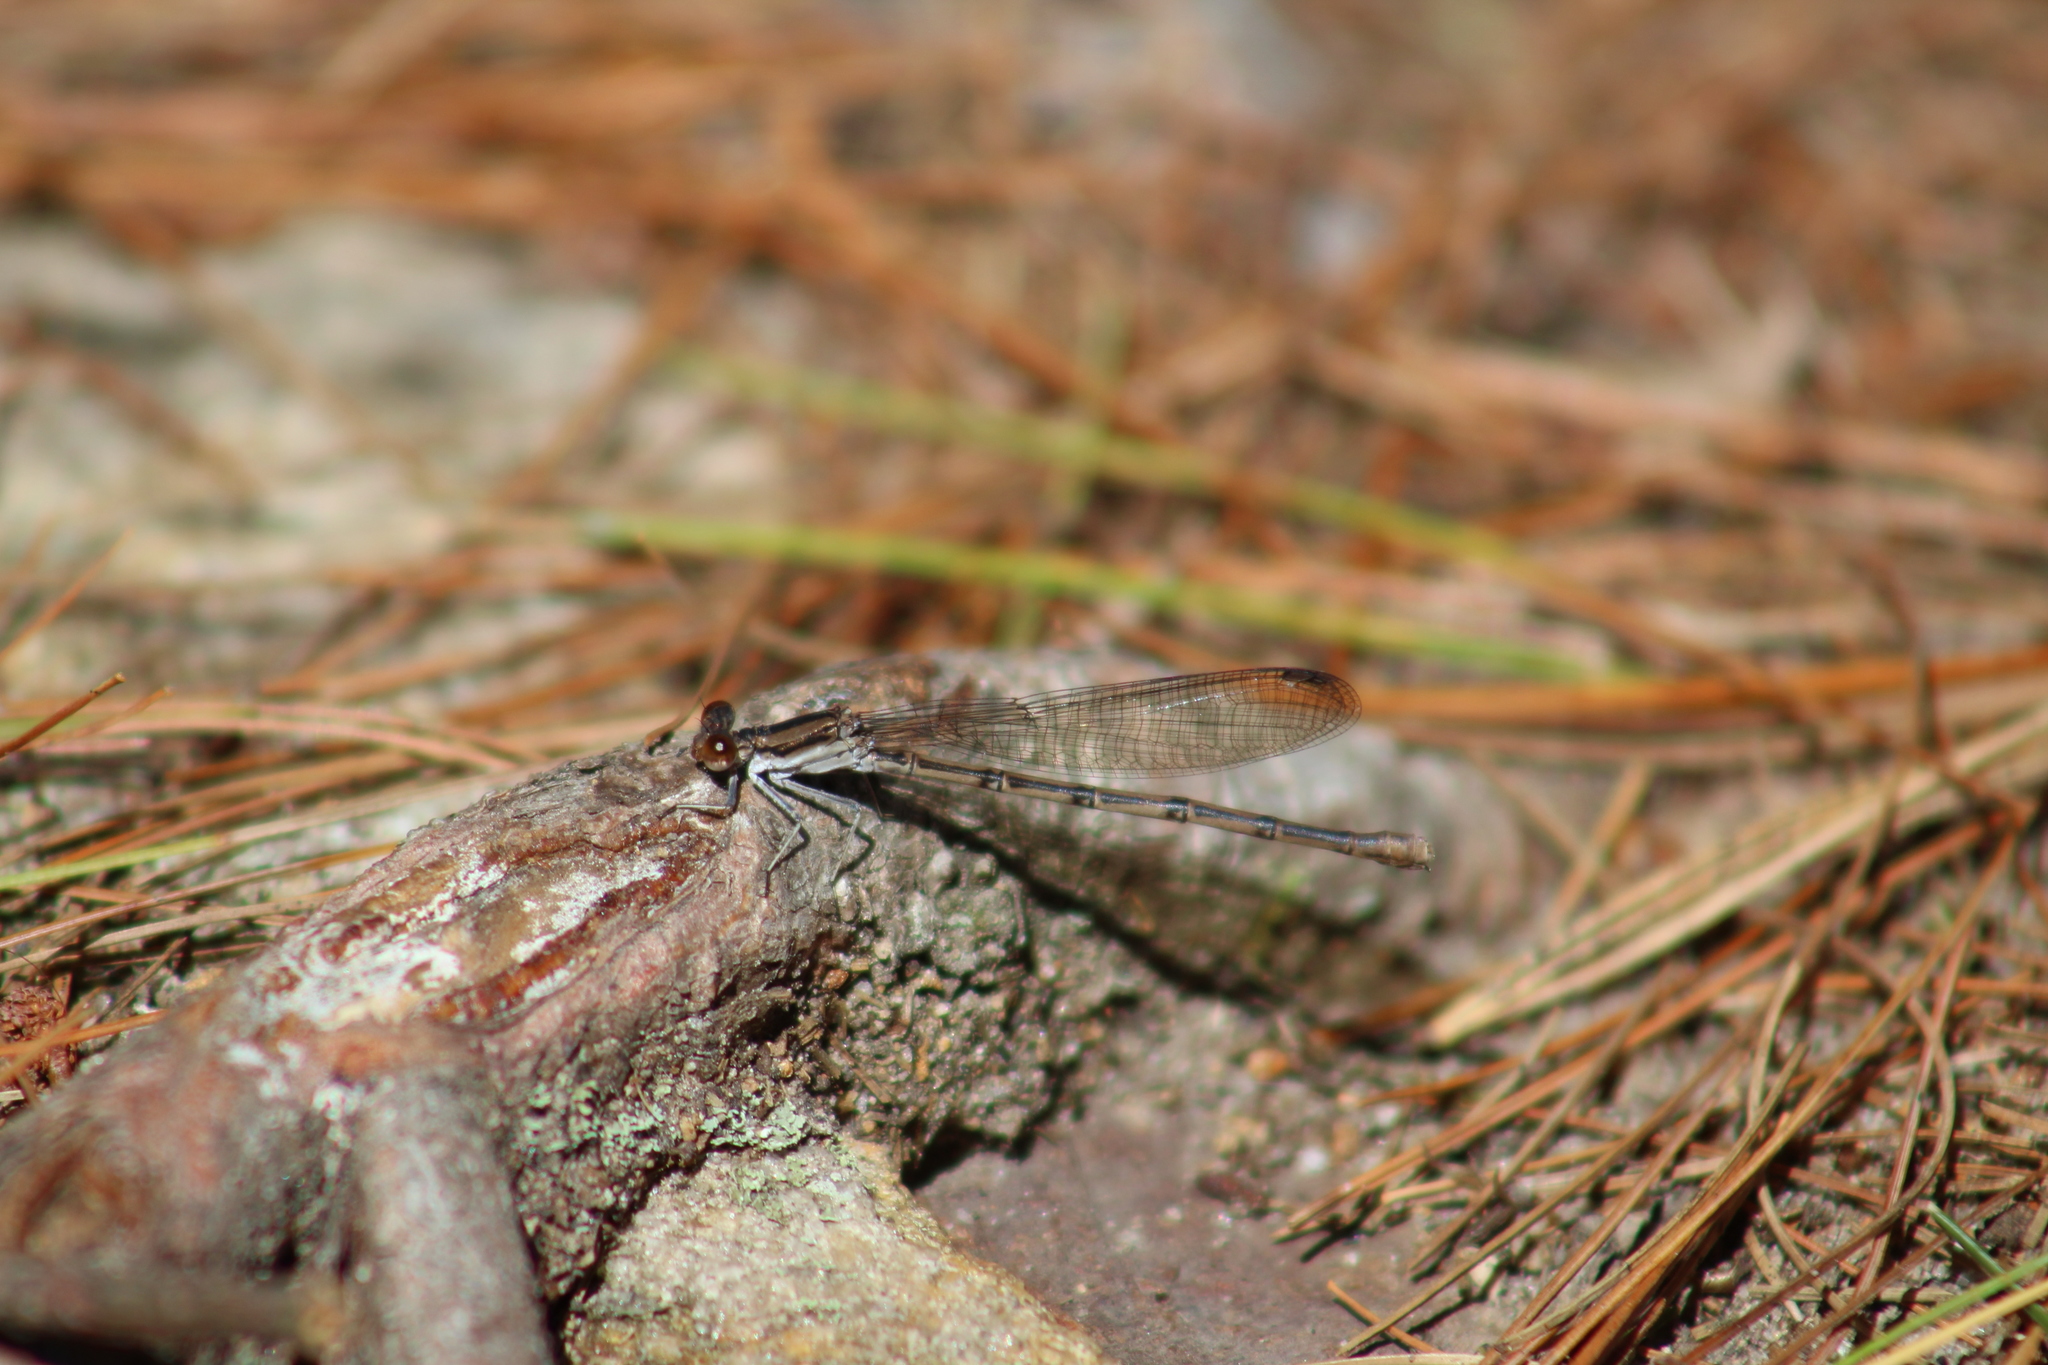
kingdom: Animalia
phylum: Arthropoda
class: Insecta
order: Odonata
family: Coenagrionidae
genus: Argia
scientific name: Argia fumipennis
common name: Variable dancer
